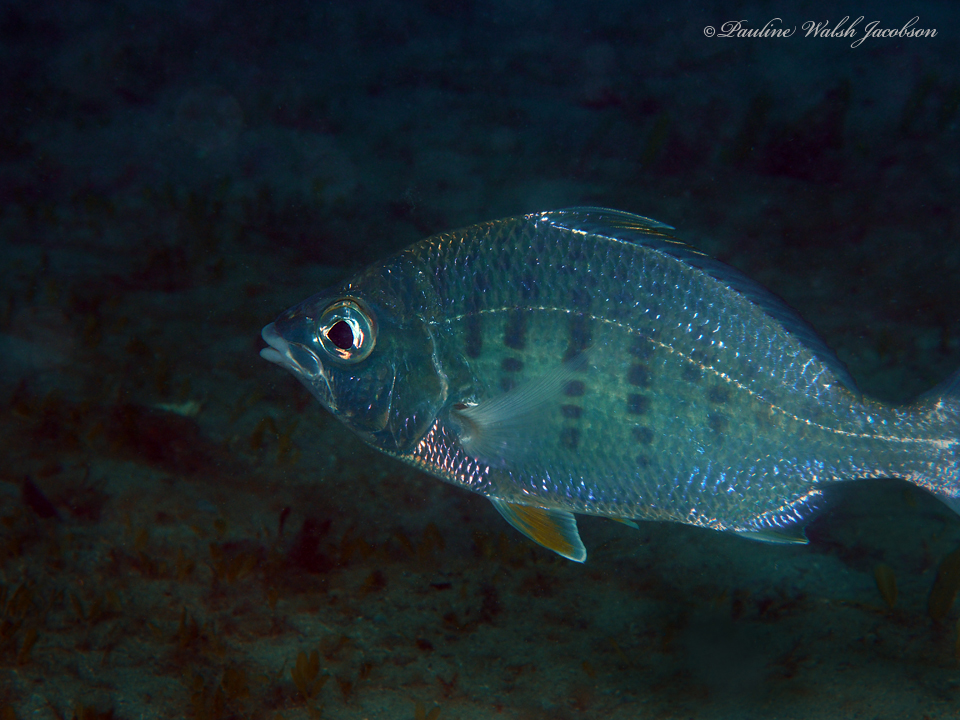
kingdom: Animalia
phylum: Chordata
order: Perciformes
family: Gerreidae
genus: Gerres
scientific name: Gerres cinereus
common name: Hedow
